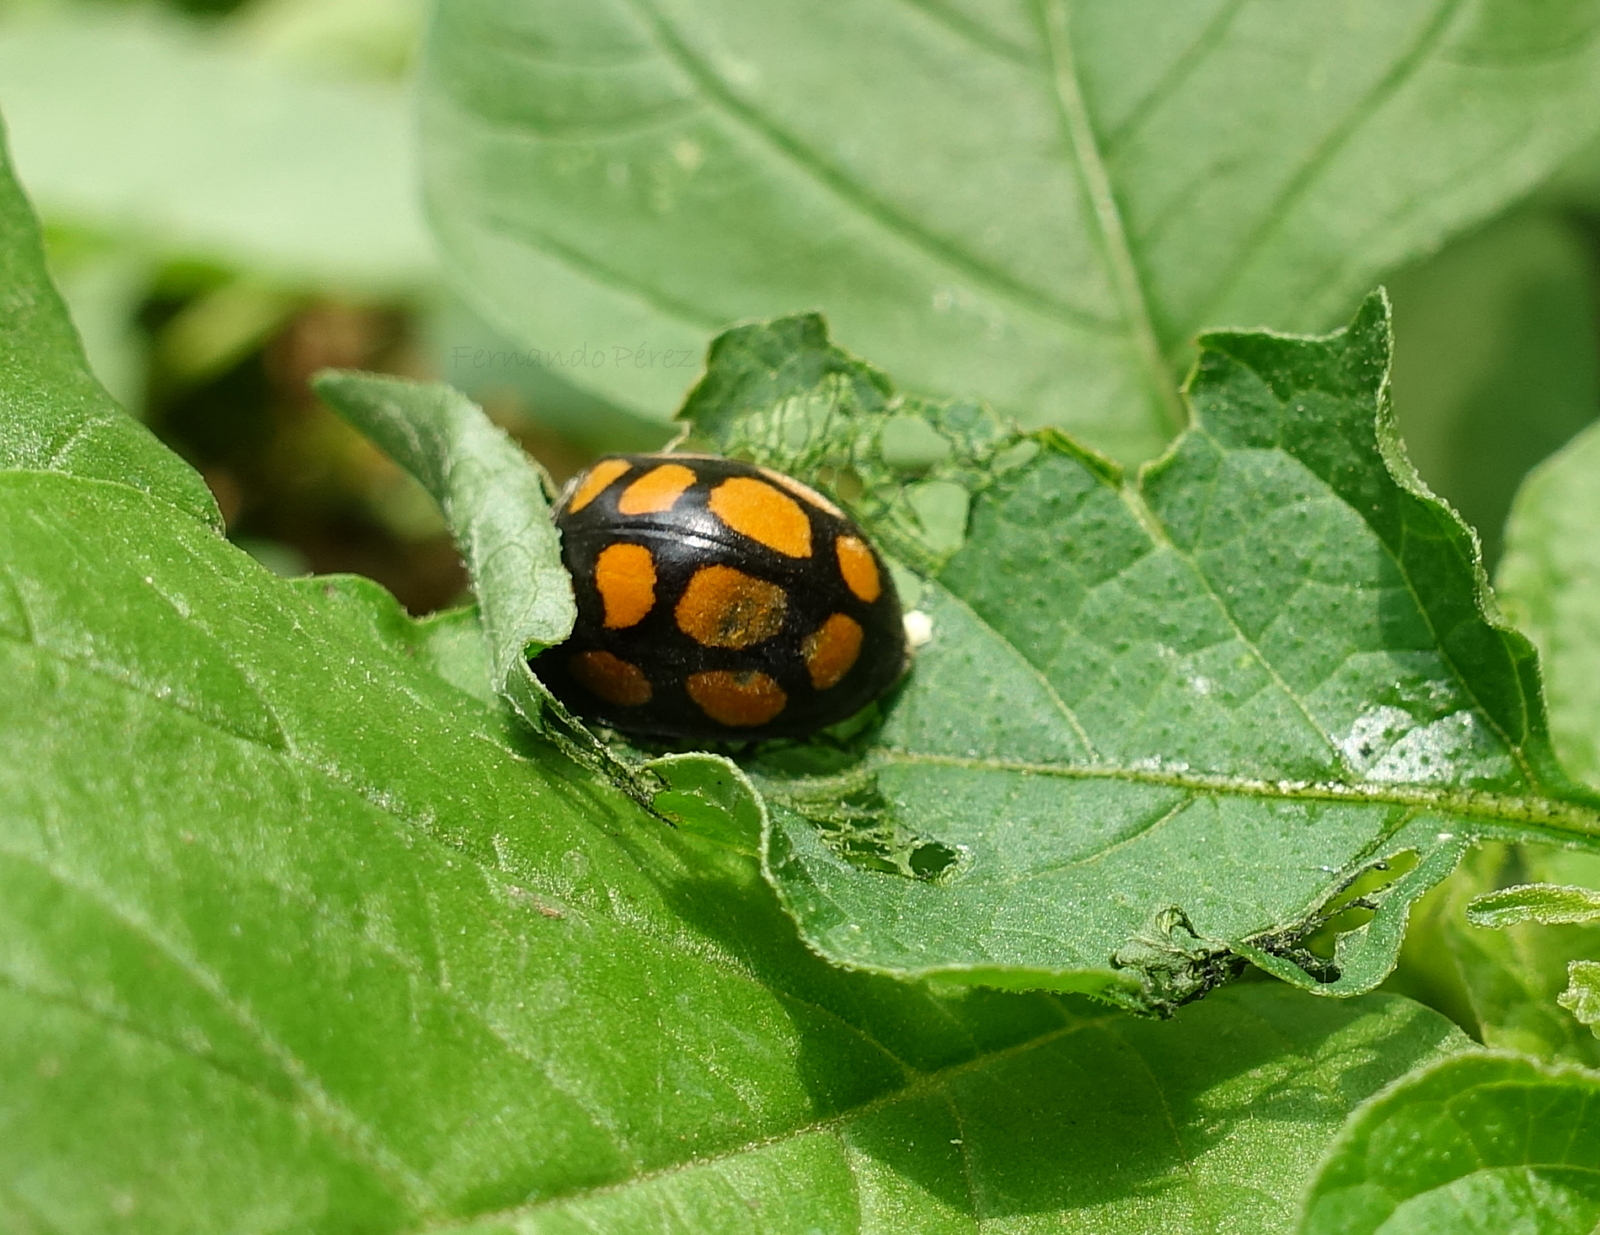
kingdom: Animalia
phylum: Arthropoda
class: Insecta
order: Coleoptera
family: Coccinellidae
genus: Epilachna
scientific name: Epilachna
